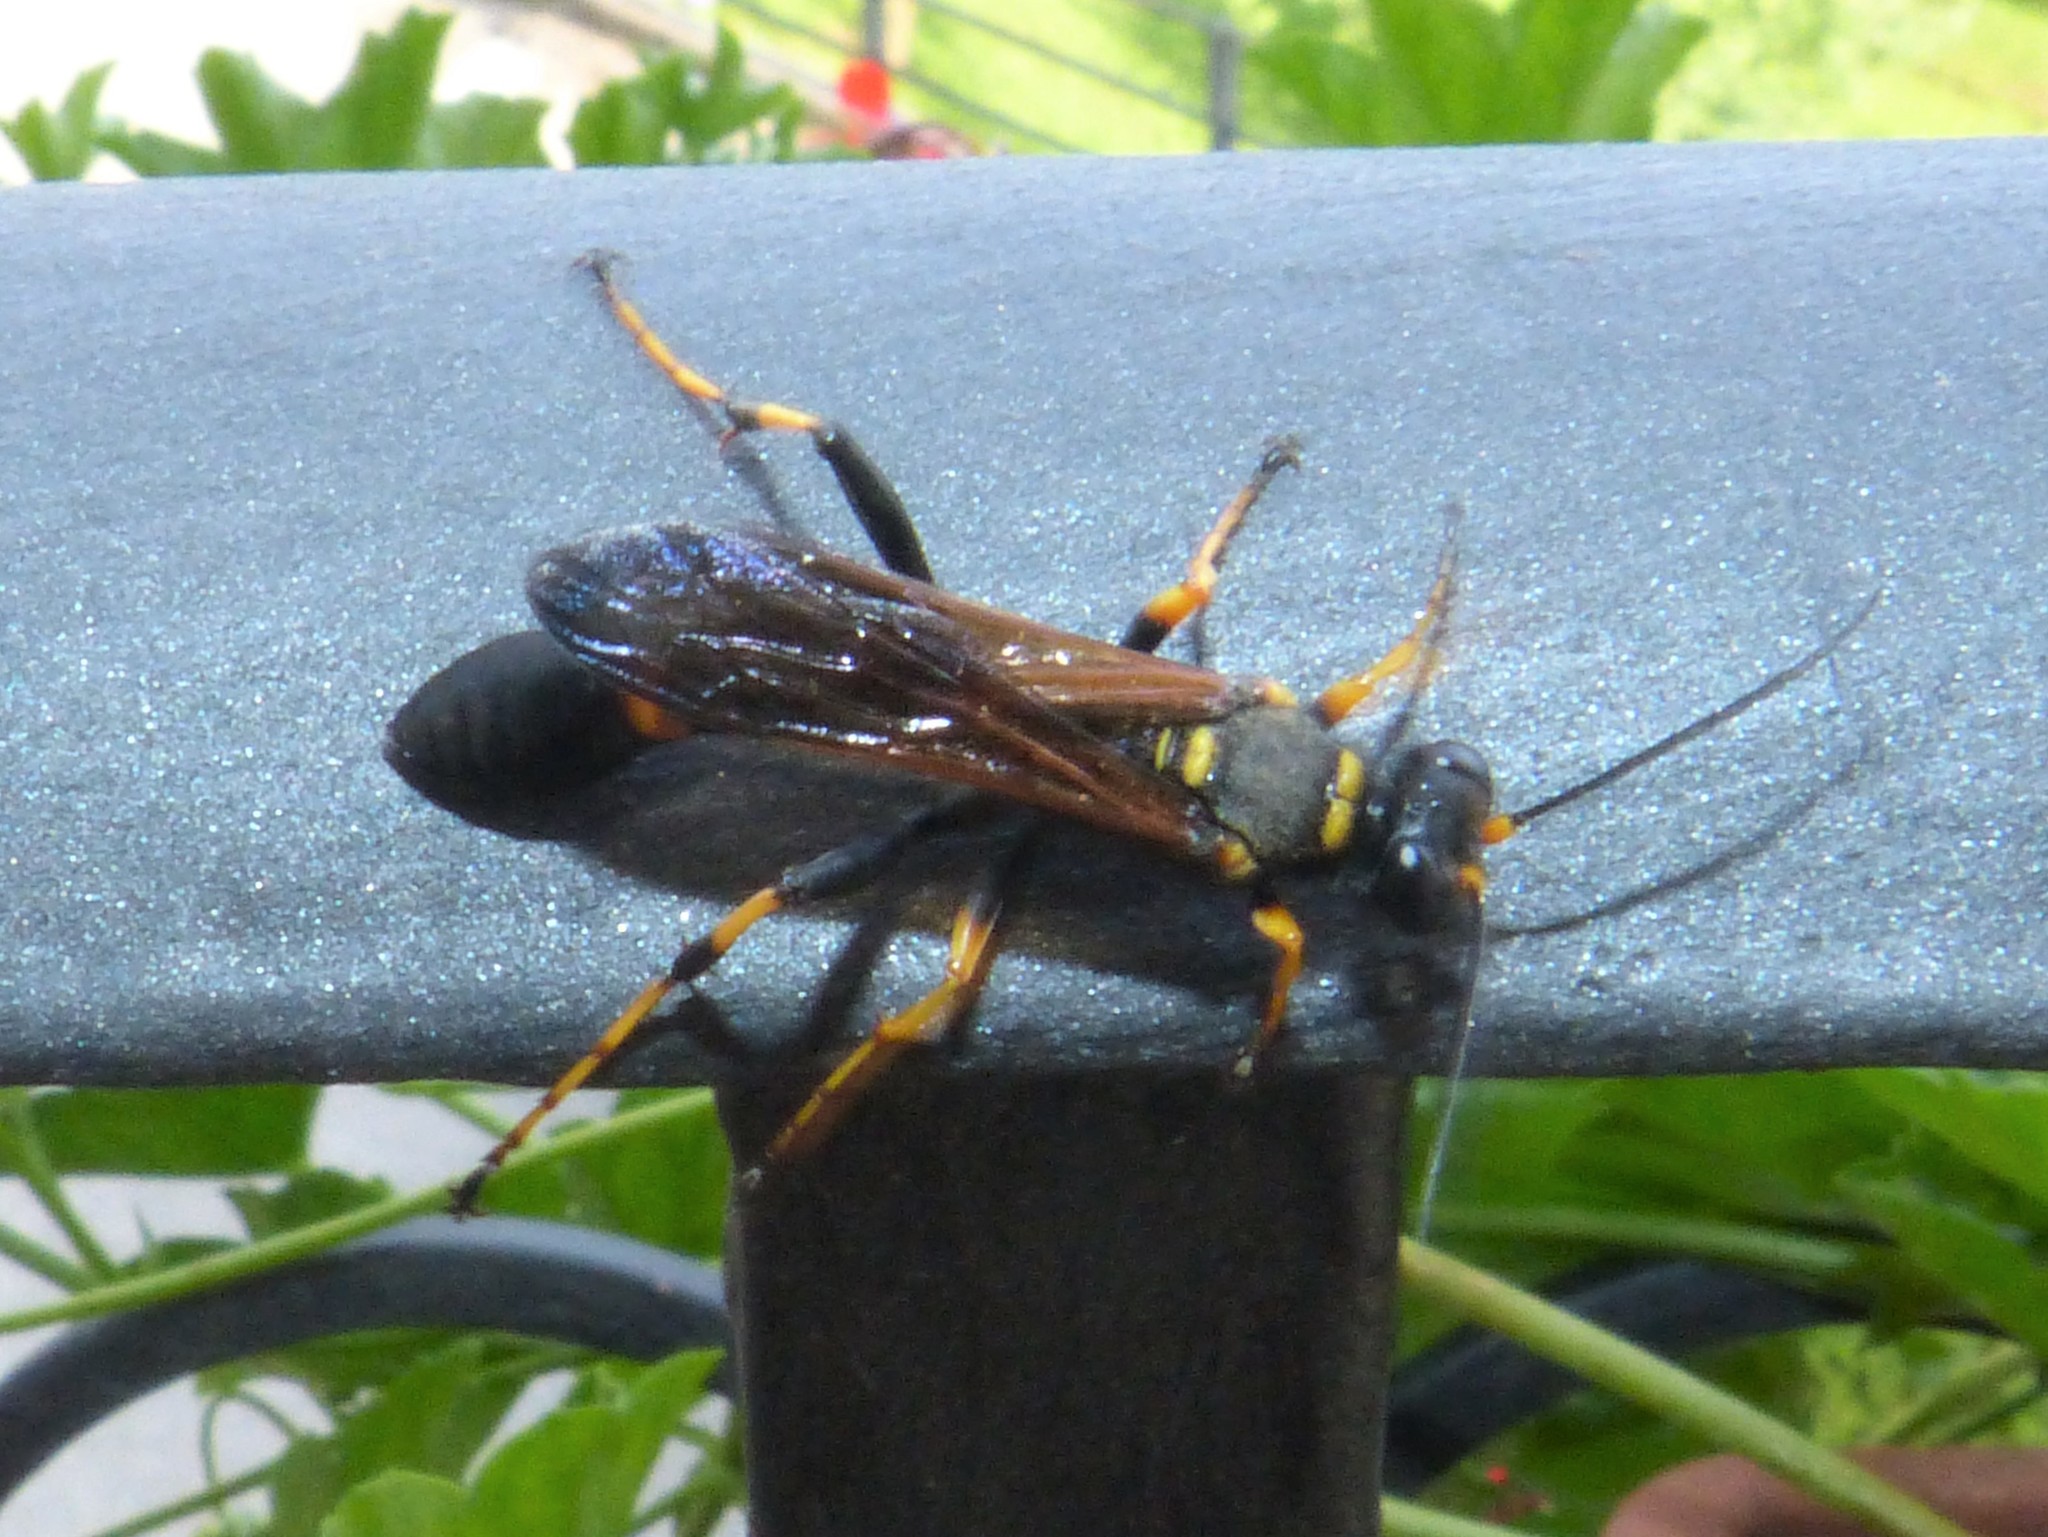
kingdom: Animalia
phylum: Arthropoda
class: Insecta
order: Hymenoptera
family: Sphecidae
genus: Sceliphron
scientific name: Sceliphron caementarium
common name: Mud dauber
